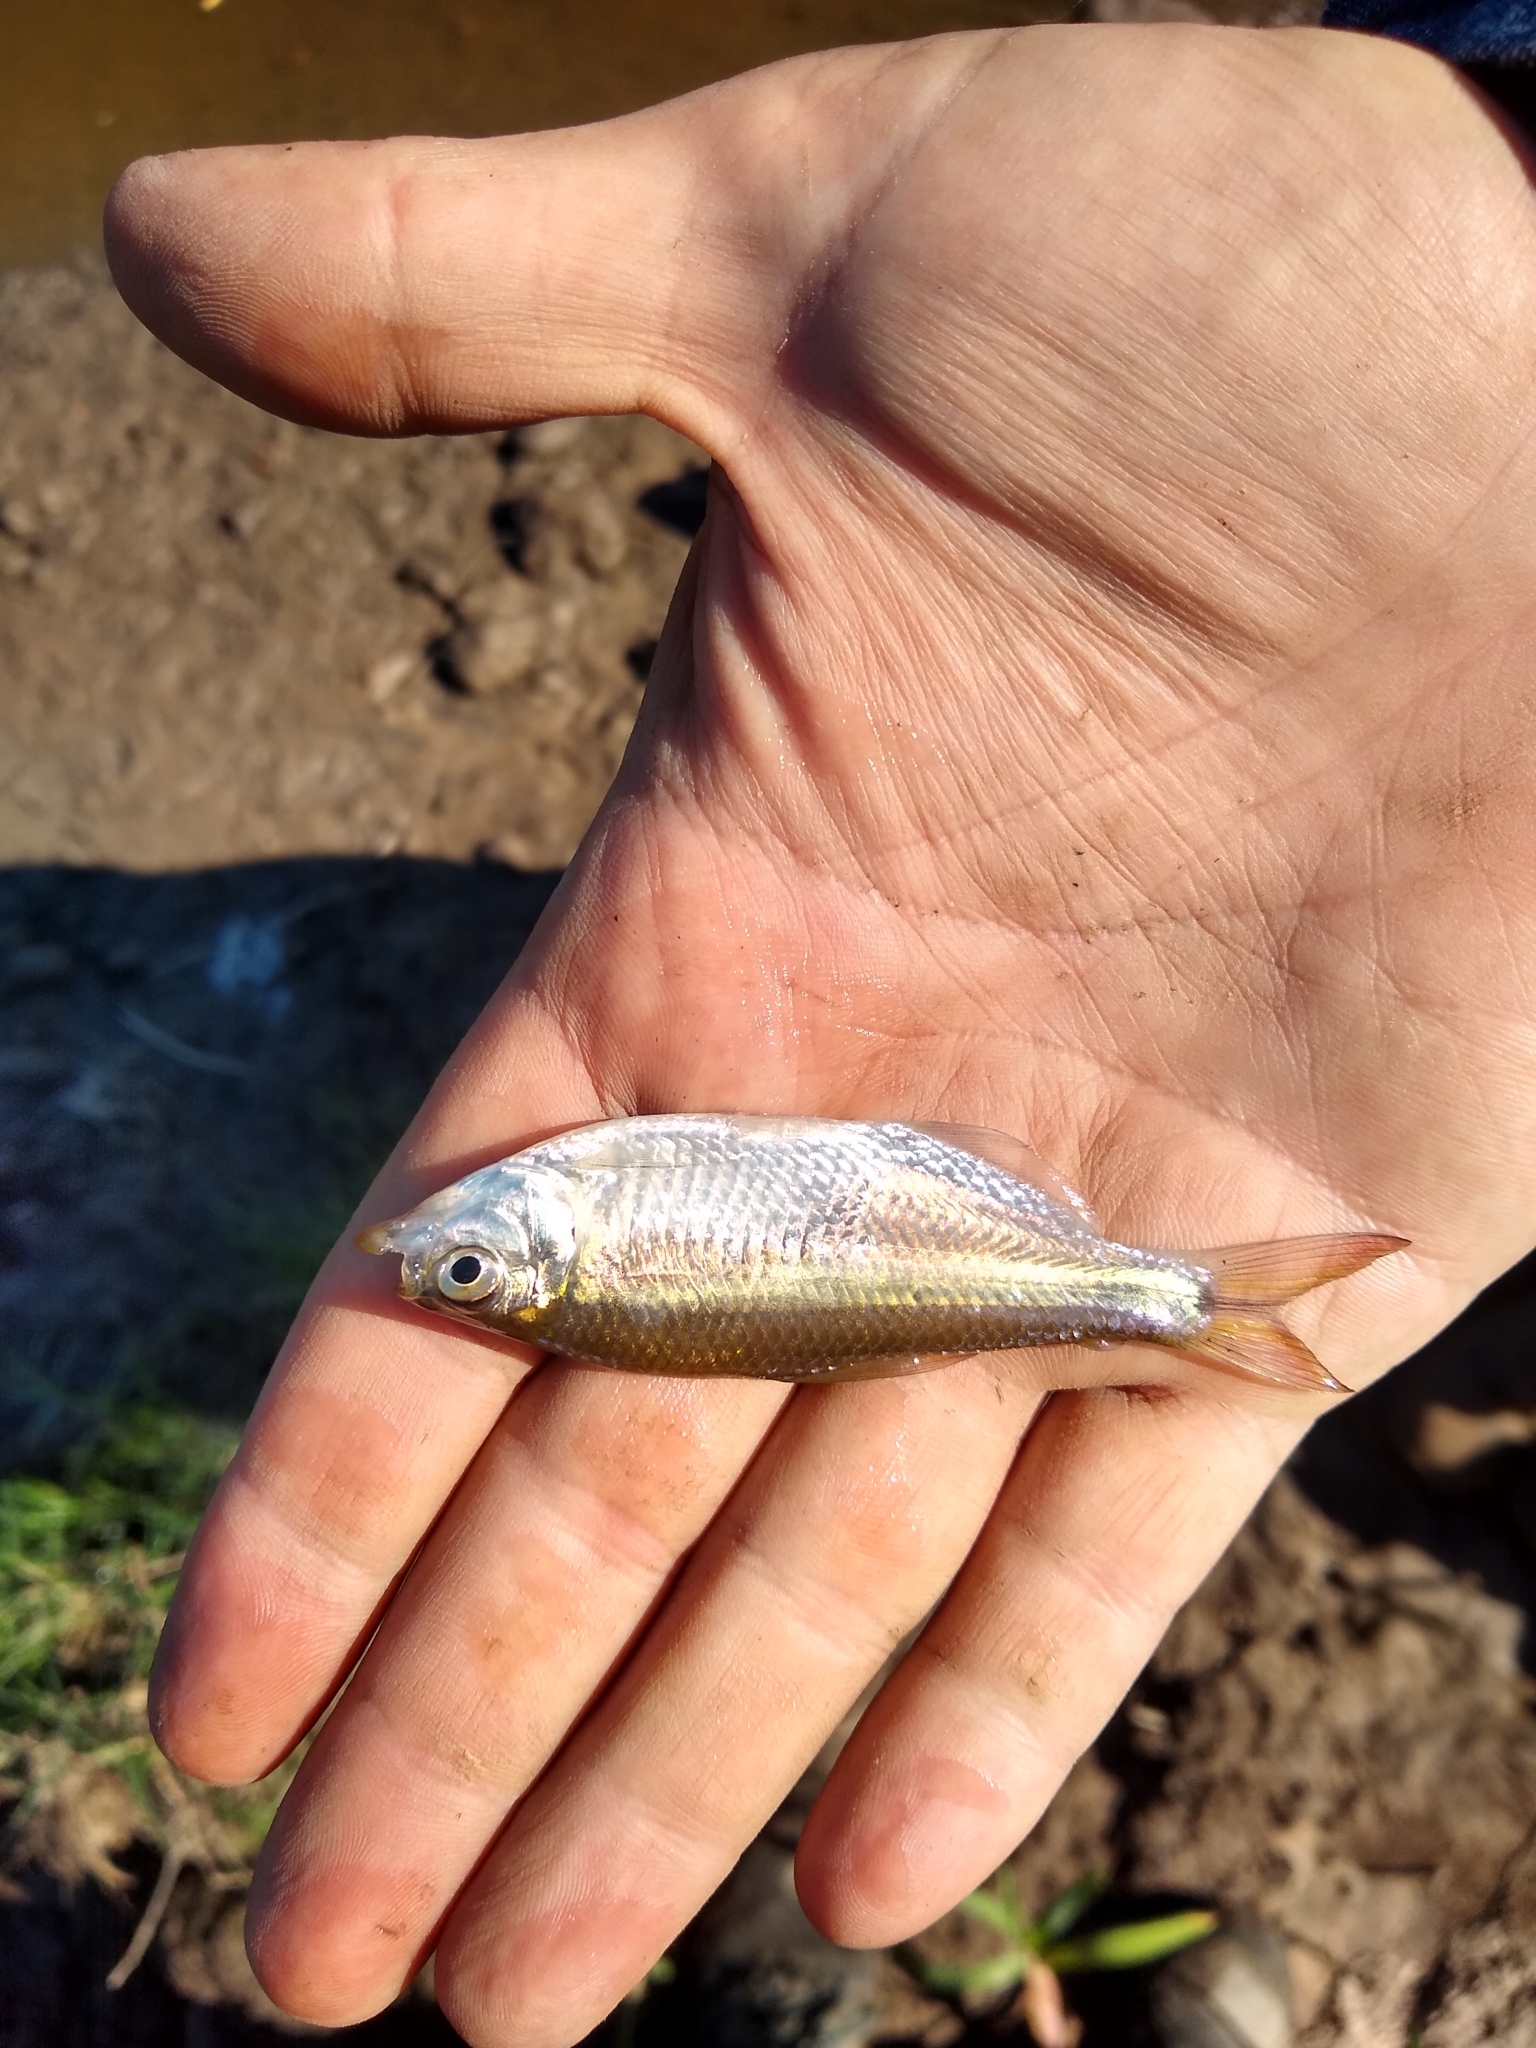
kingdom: Animalia
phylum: Chordata
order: Characiformes
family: Characidae
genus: Astyanax
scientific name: Astyanax fasciatus
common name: Banded astyanax
